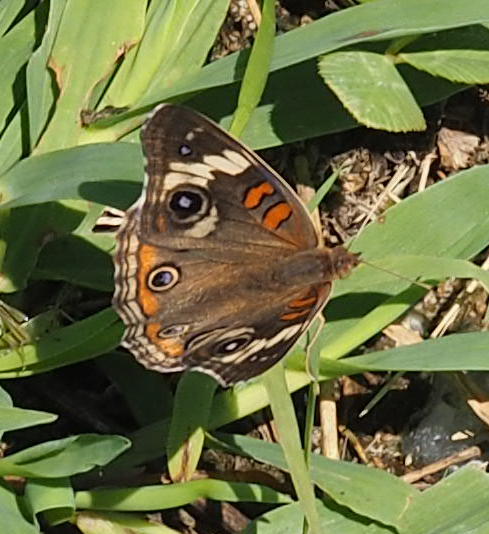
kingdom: Animalia
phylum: Arthropoda
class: Insecta
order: Lepidoptera
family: Nymphalidae
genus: Junonia
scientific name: Junonia coenia
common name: Common buckeye
